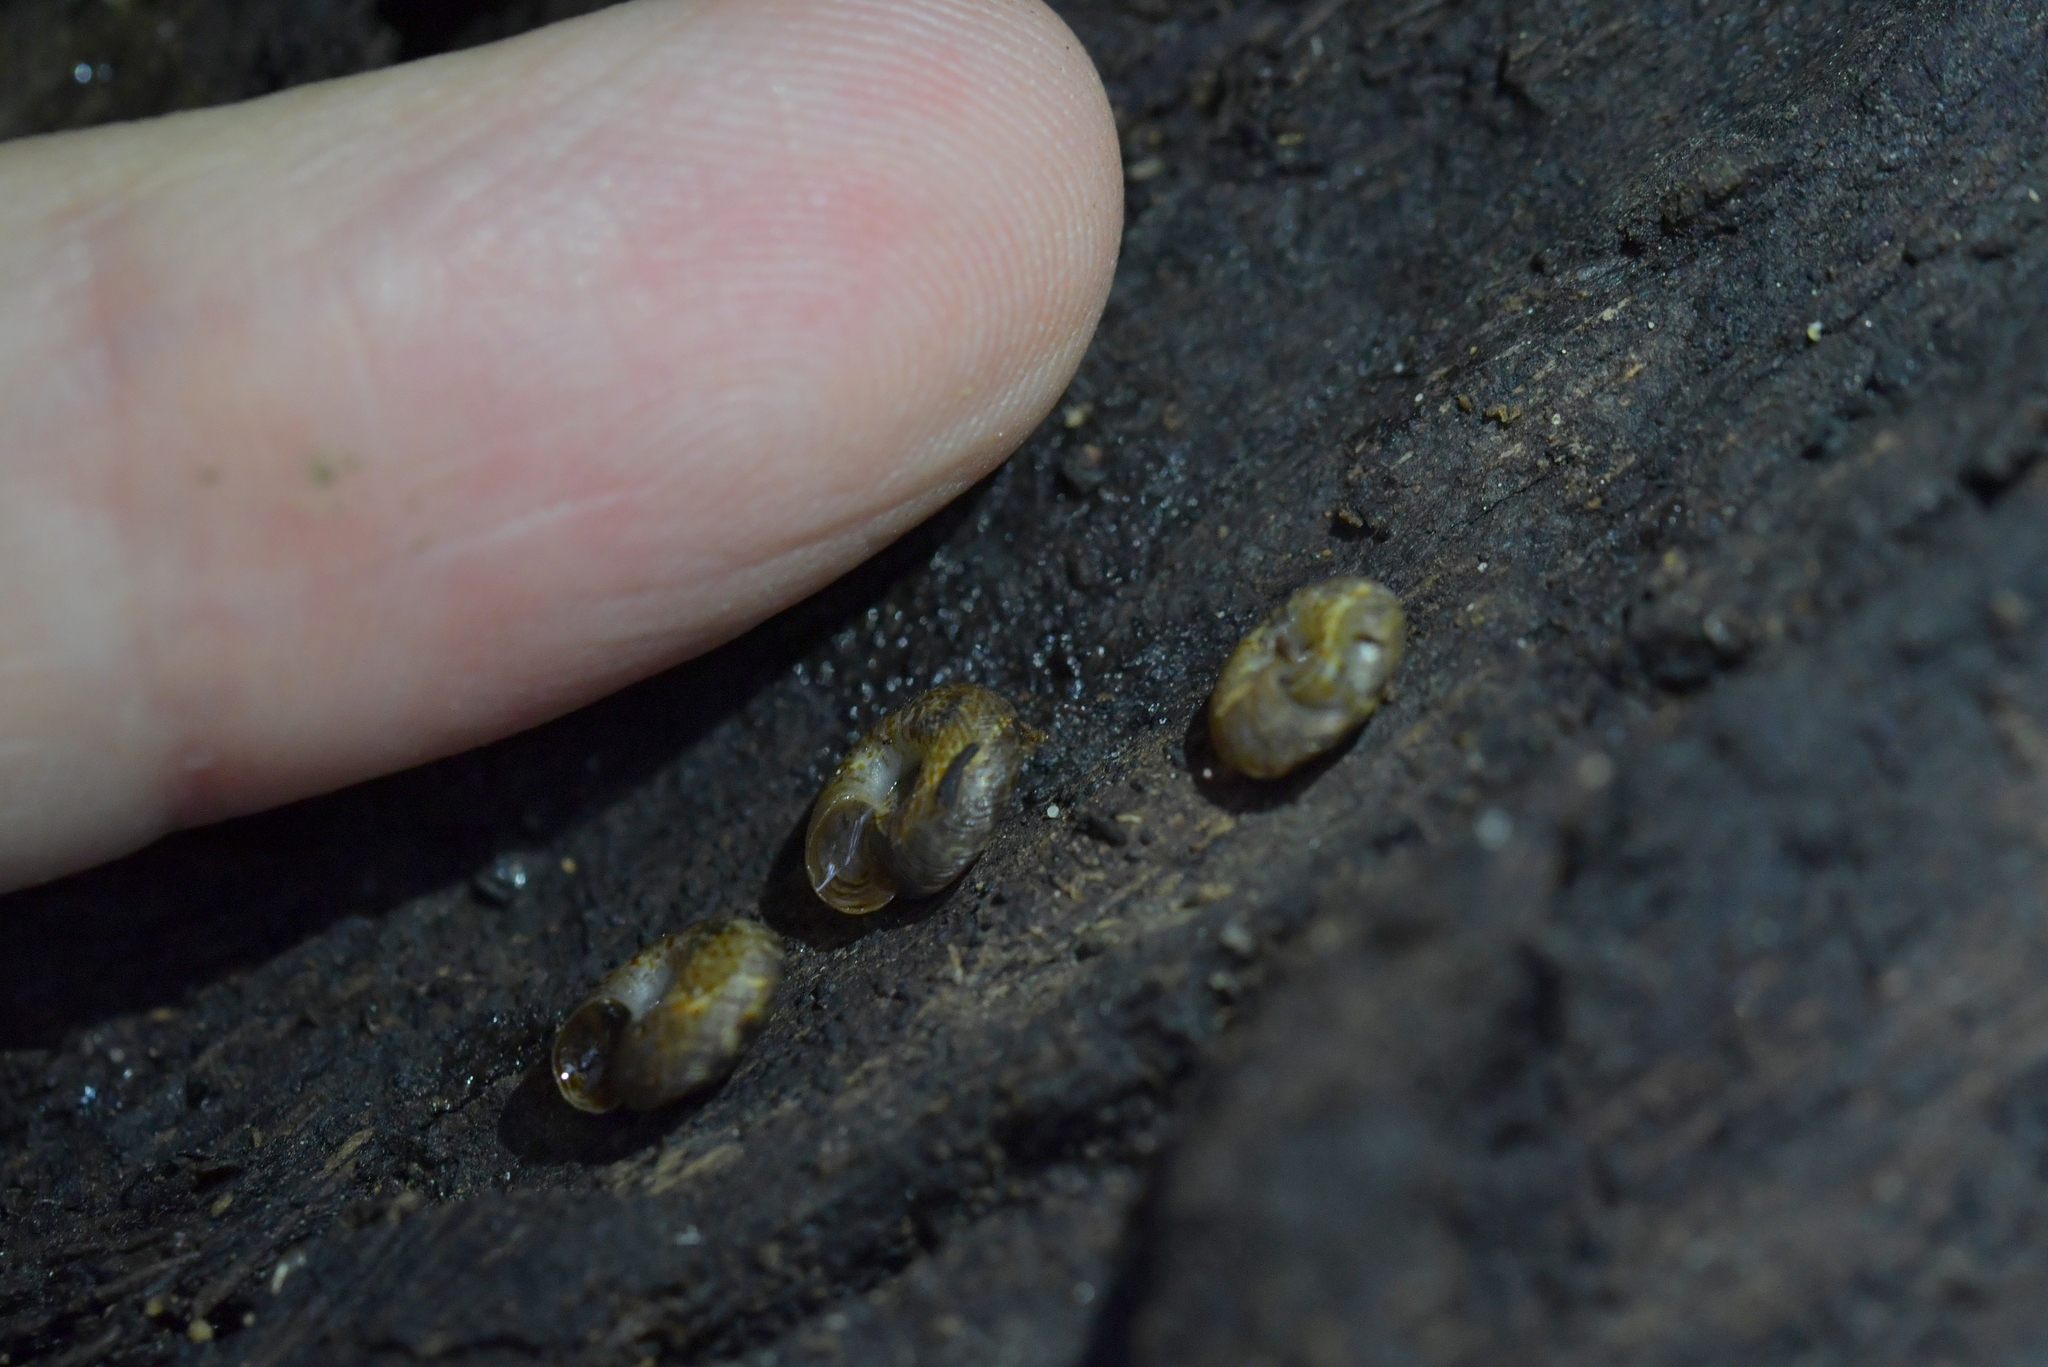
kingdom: Animalia
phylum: Mollusca
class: Gastropoda
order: Stylommatophora
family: Charopidae
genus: Phacussa
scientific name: Phacussa lucetta
